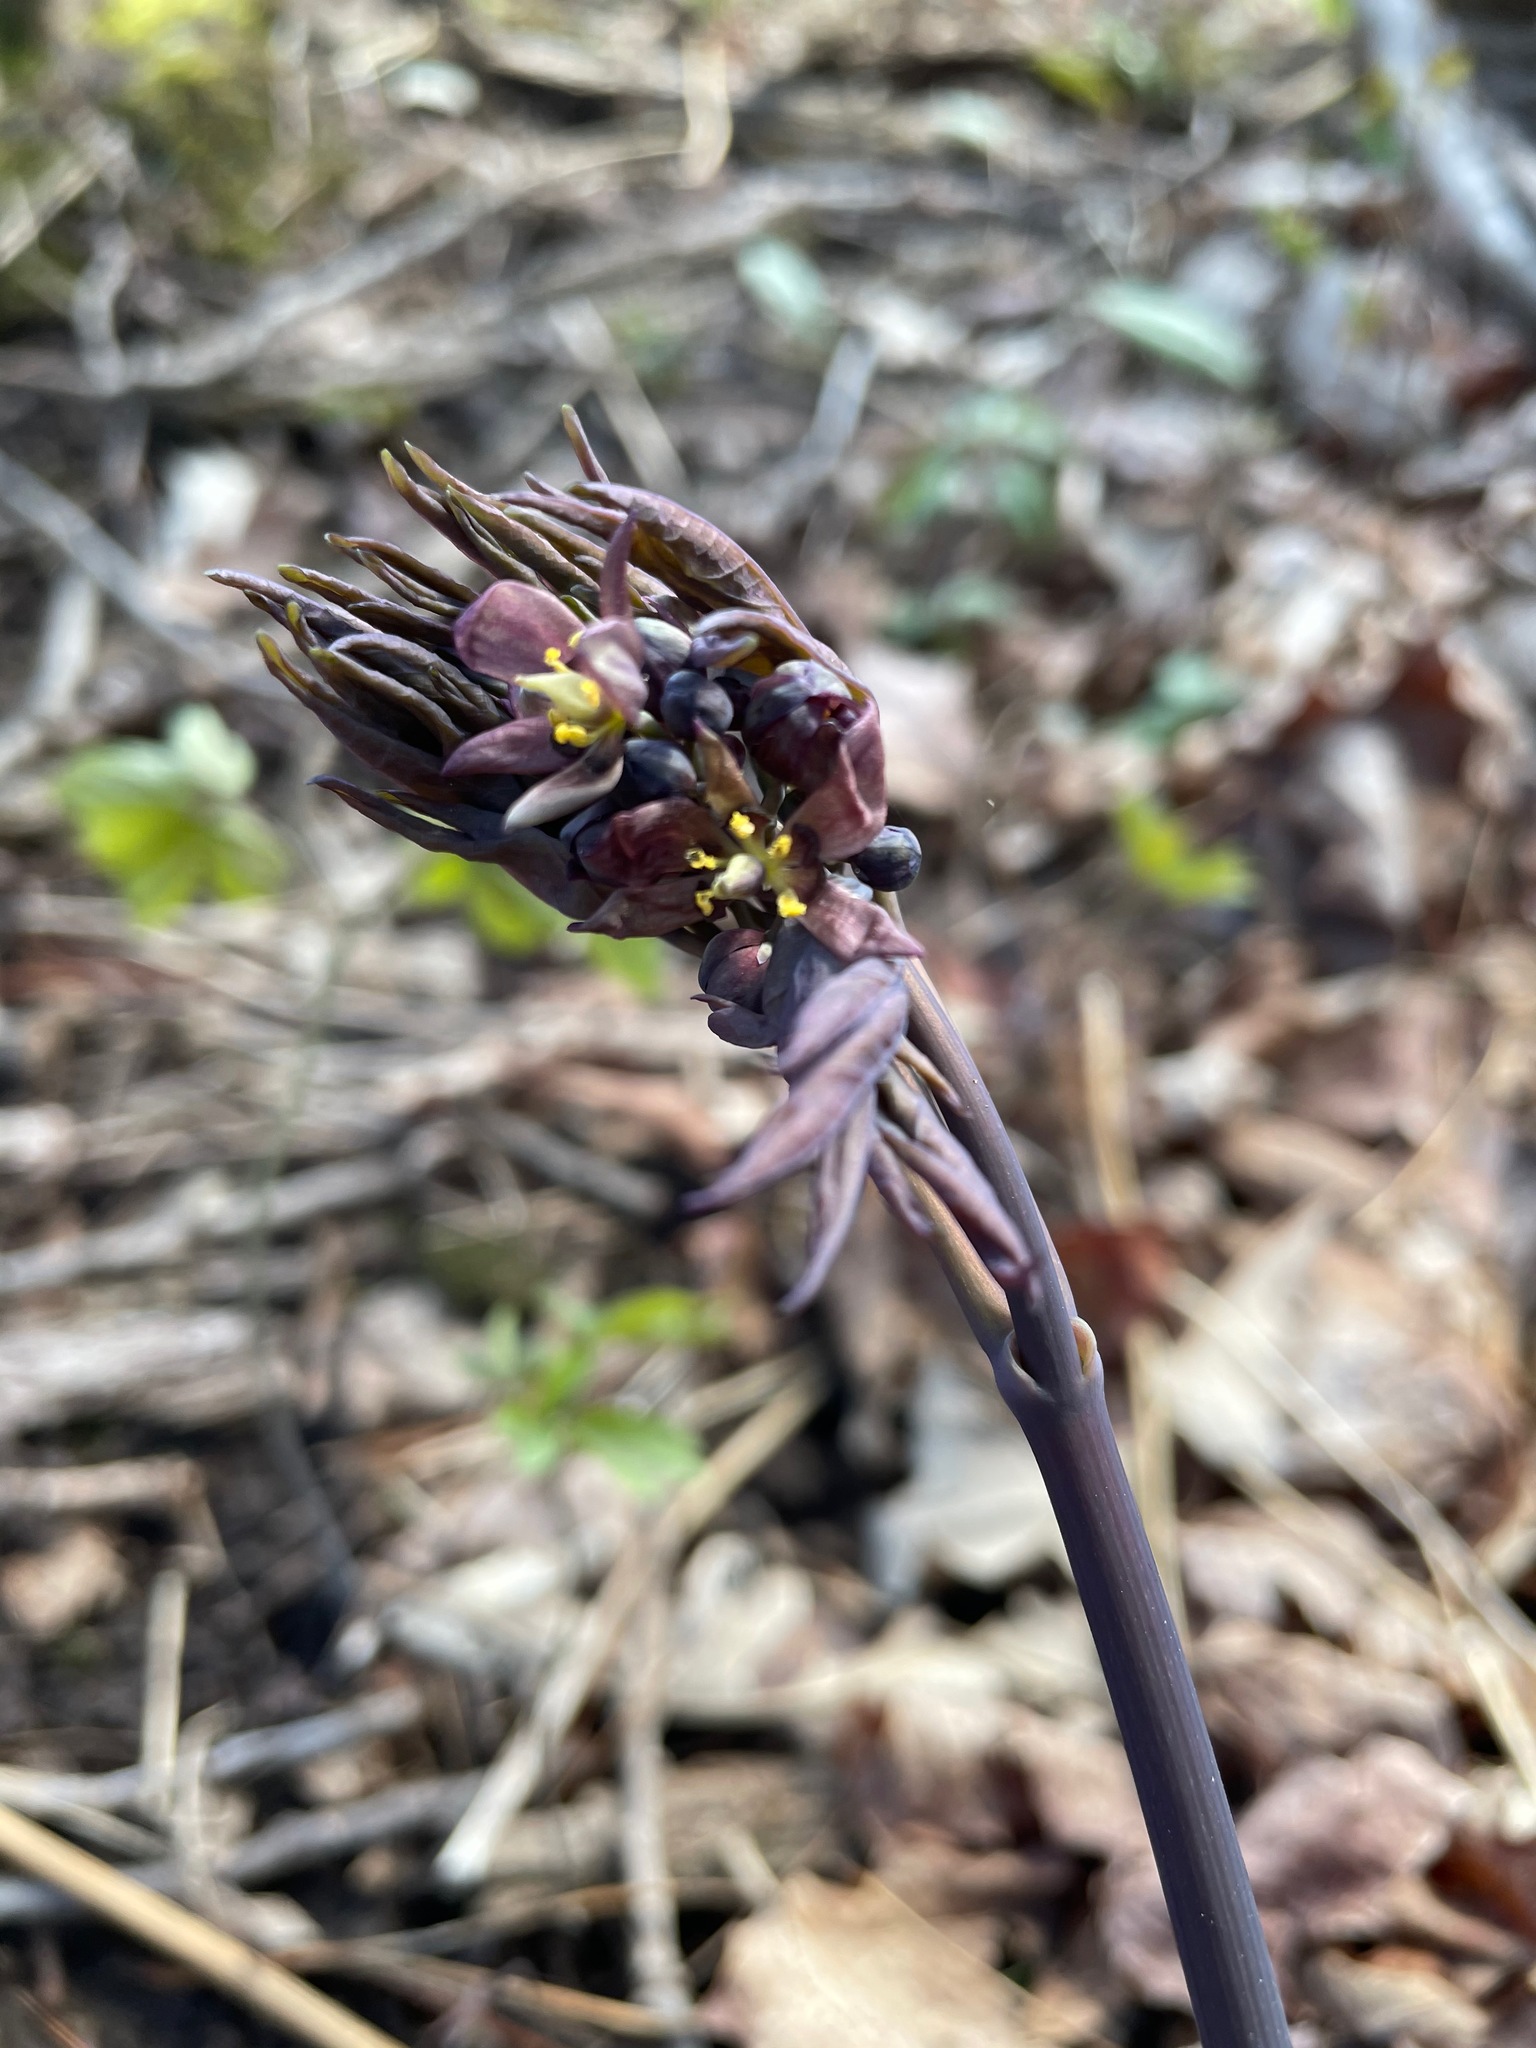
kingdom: Plantae
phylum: Tracheophyta
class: Magnoliopsida
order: Ranunculales
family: Berberidaceae
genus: Caulophyllum
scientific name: Caulophyllum giganteum
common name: Blue cohosh
